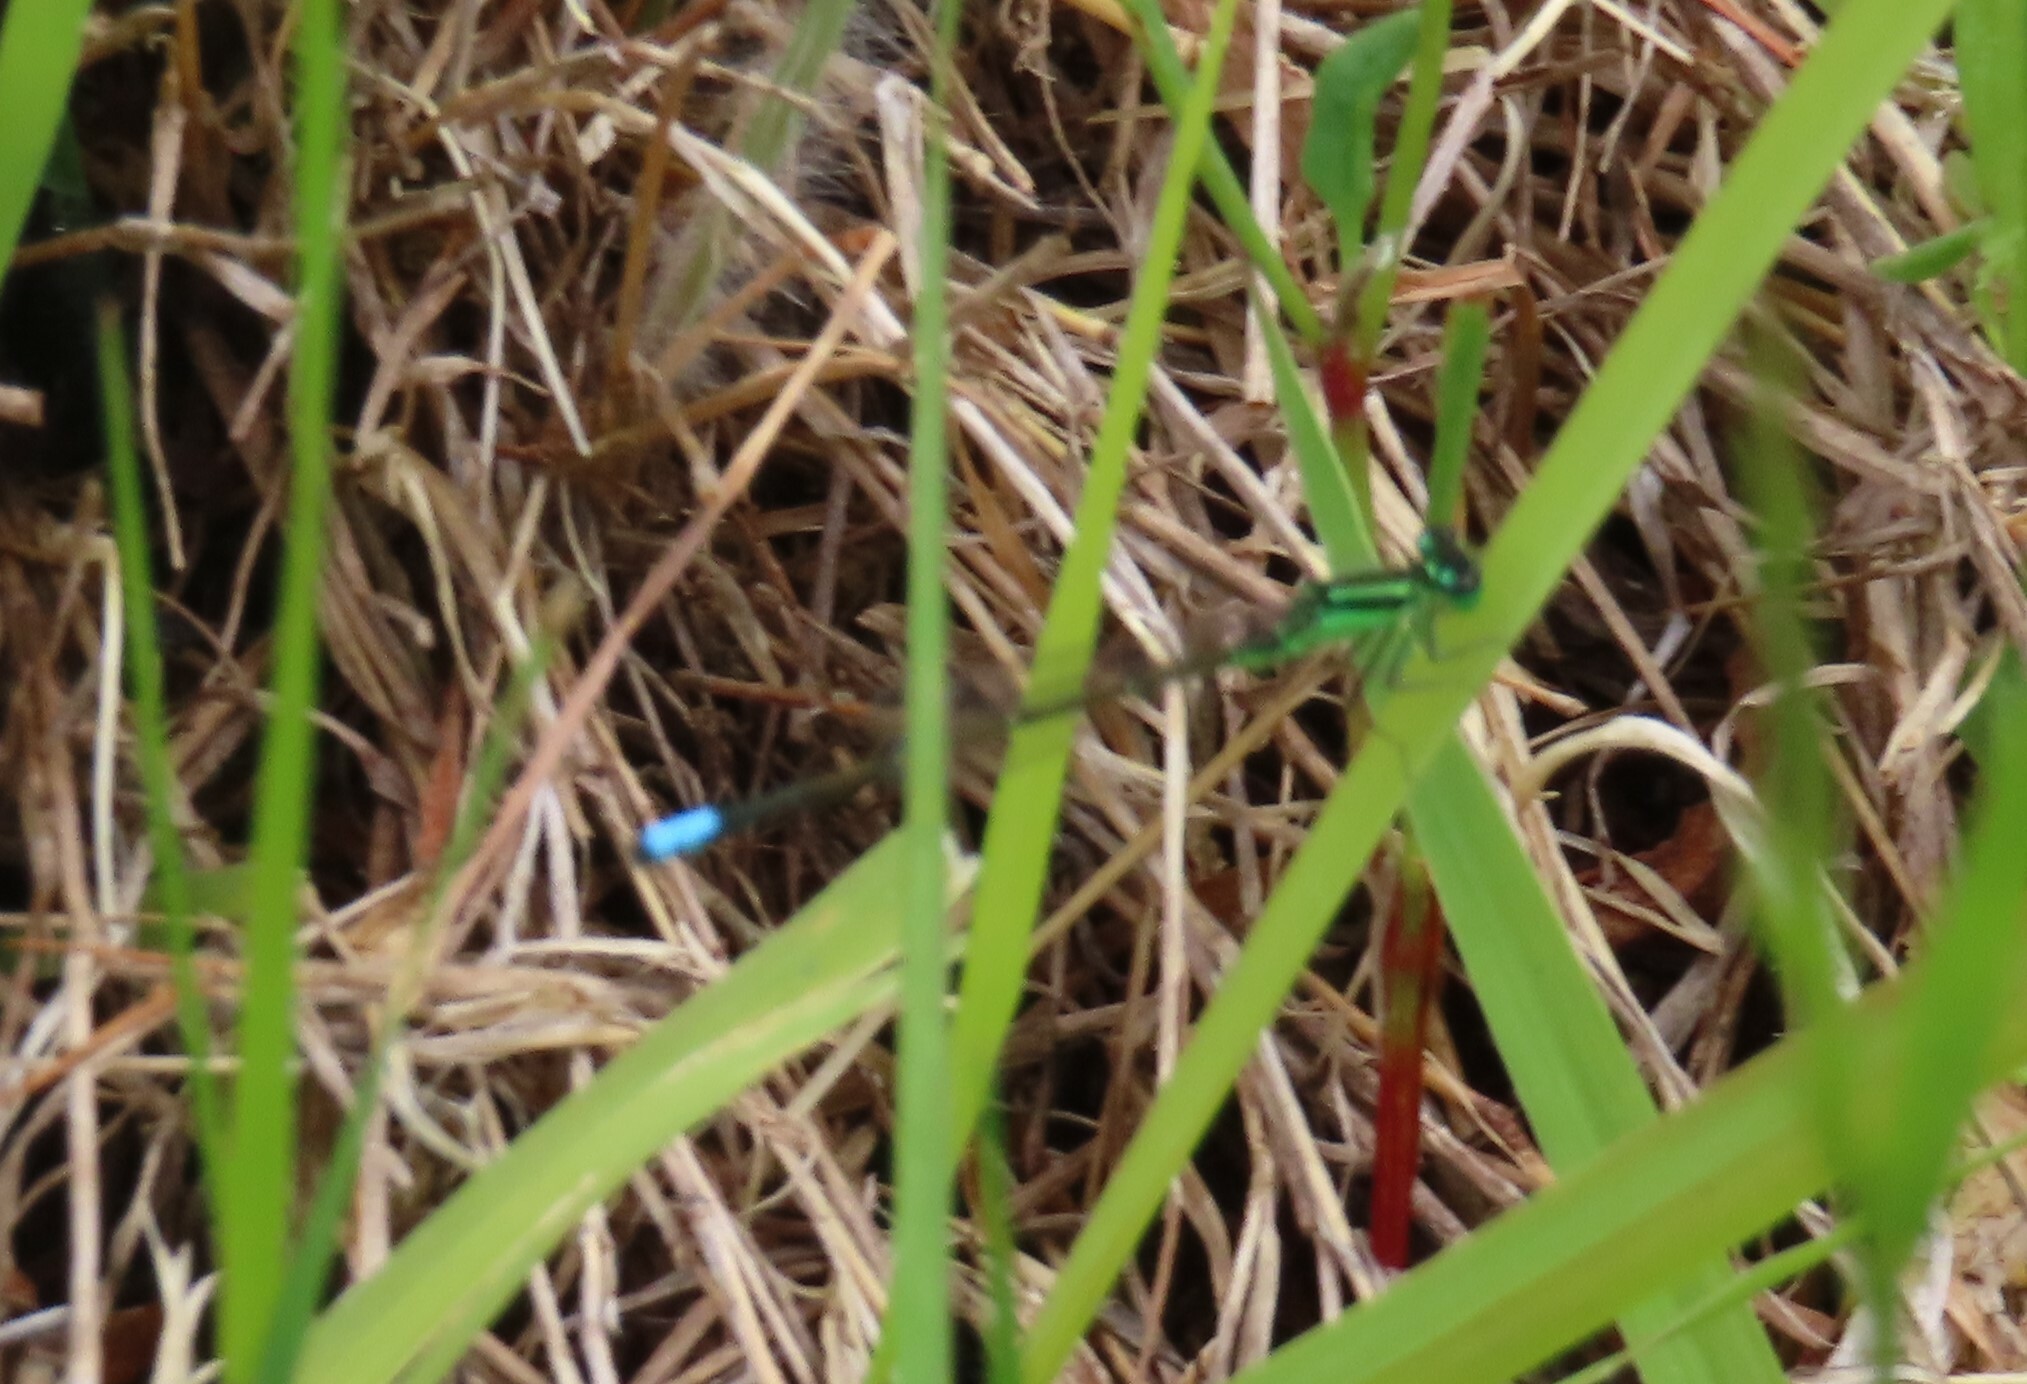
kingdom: Animalia
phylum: Arthropoda
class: Insecta
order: Odonata
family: Coenagrionidae
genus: Ischnura
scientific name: Ischnura verticalis
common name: Eastern forktail
